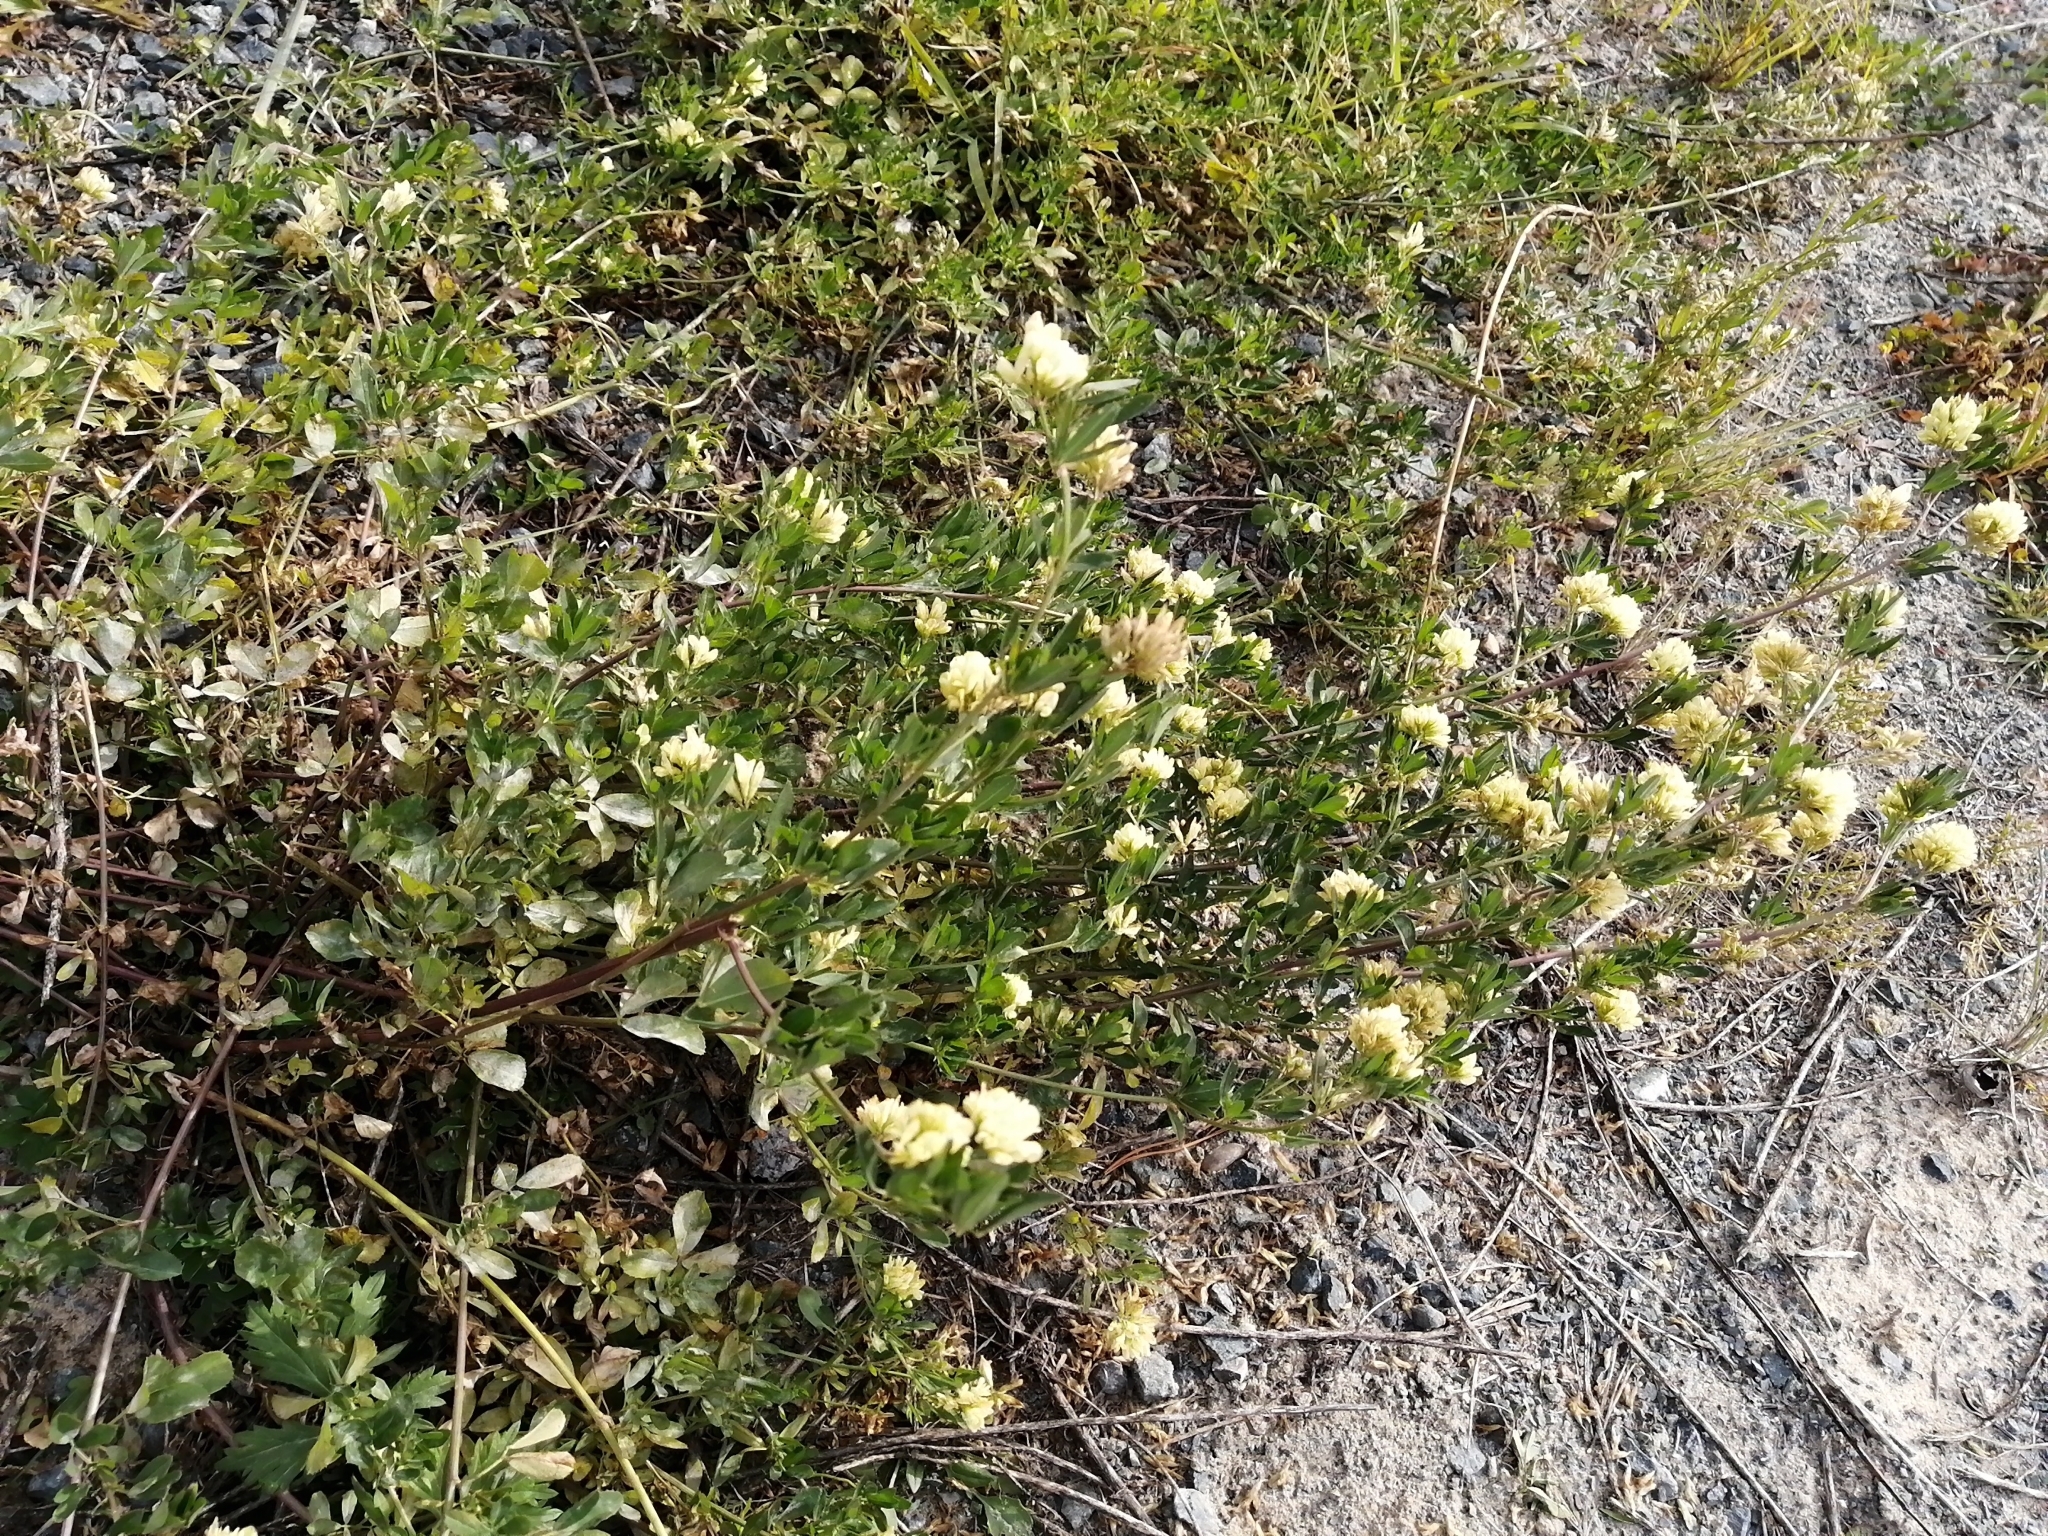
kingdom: Plantae
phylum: Tracheophyta
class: Magnoliopsida
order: Fabales
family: Fabaceae
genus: Medicago
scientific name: Medicago varia
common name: Sand lucerne
